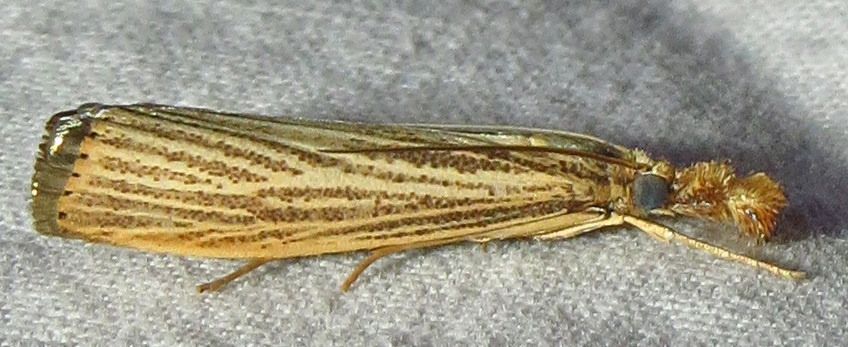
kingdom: Animalia
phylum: Arthropoda
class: Insecta
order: Lepidoptera
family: Crambidae
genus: Agriphila
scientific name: Agriphila vulgivagellus
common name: Vagabond crambus moth
